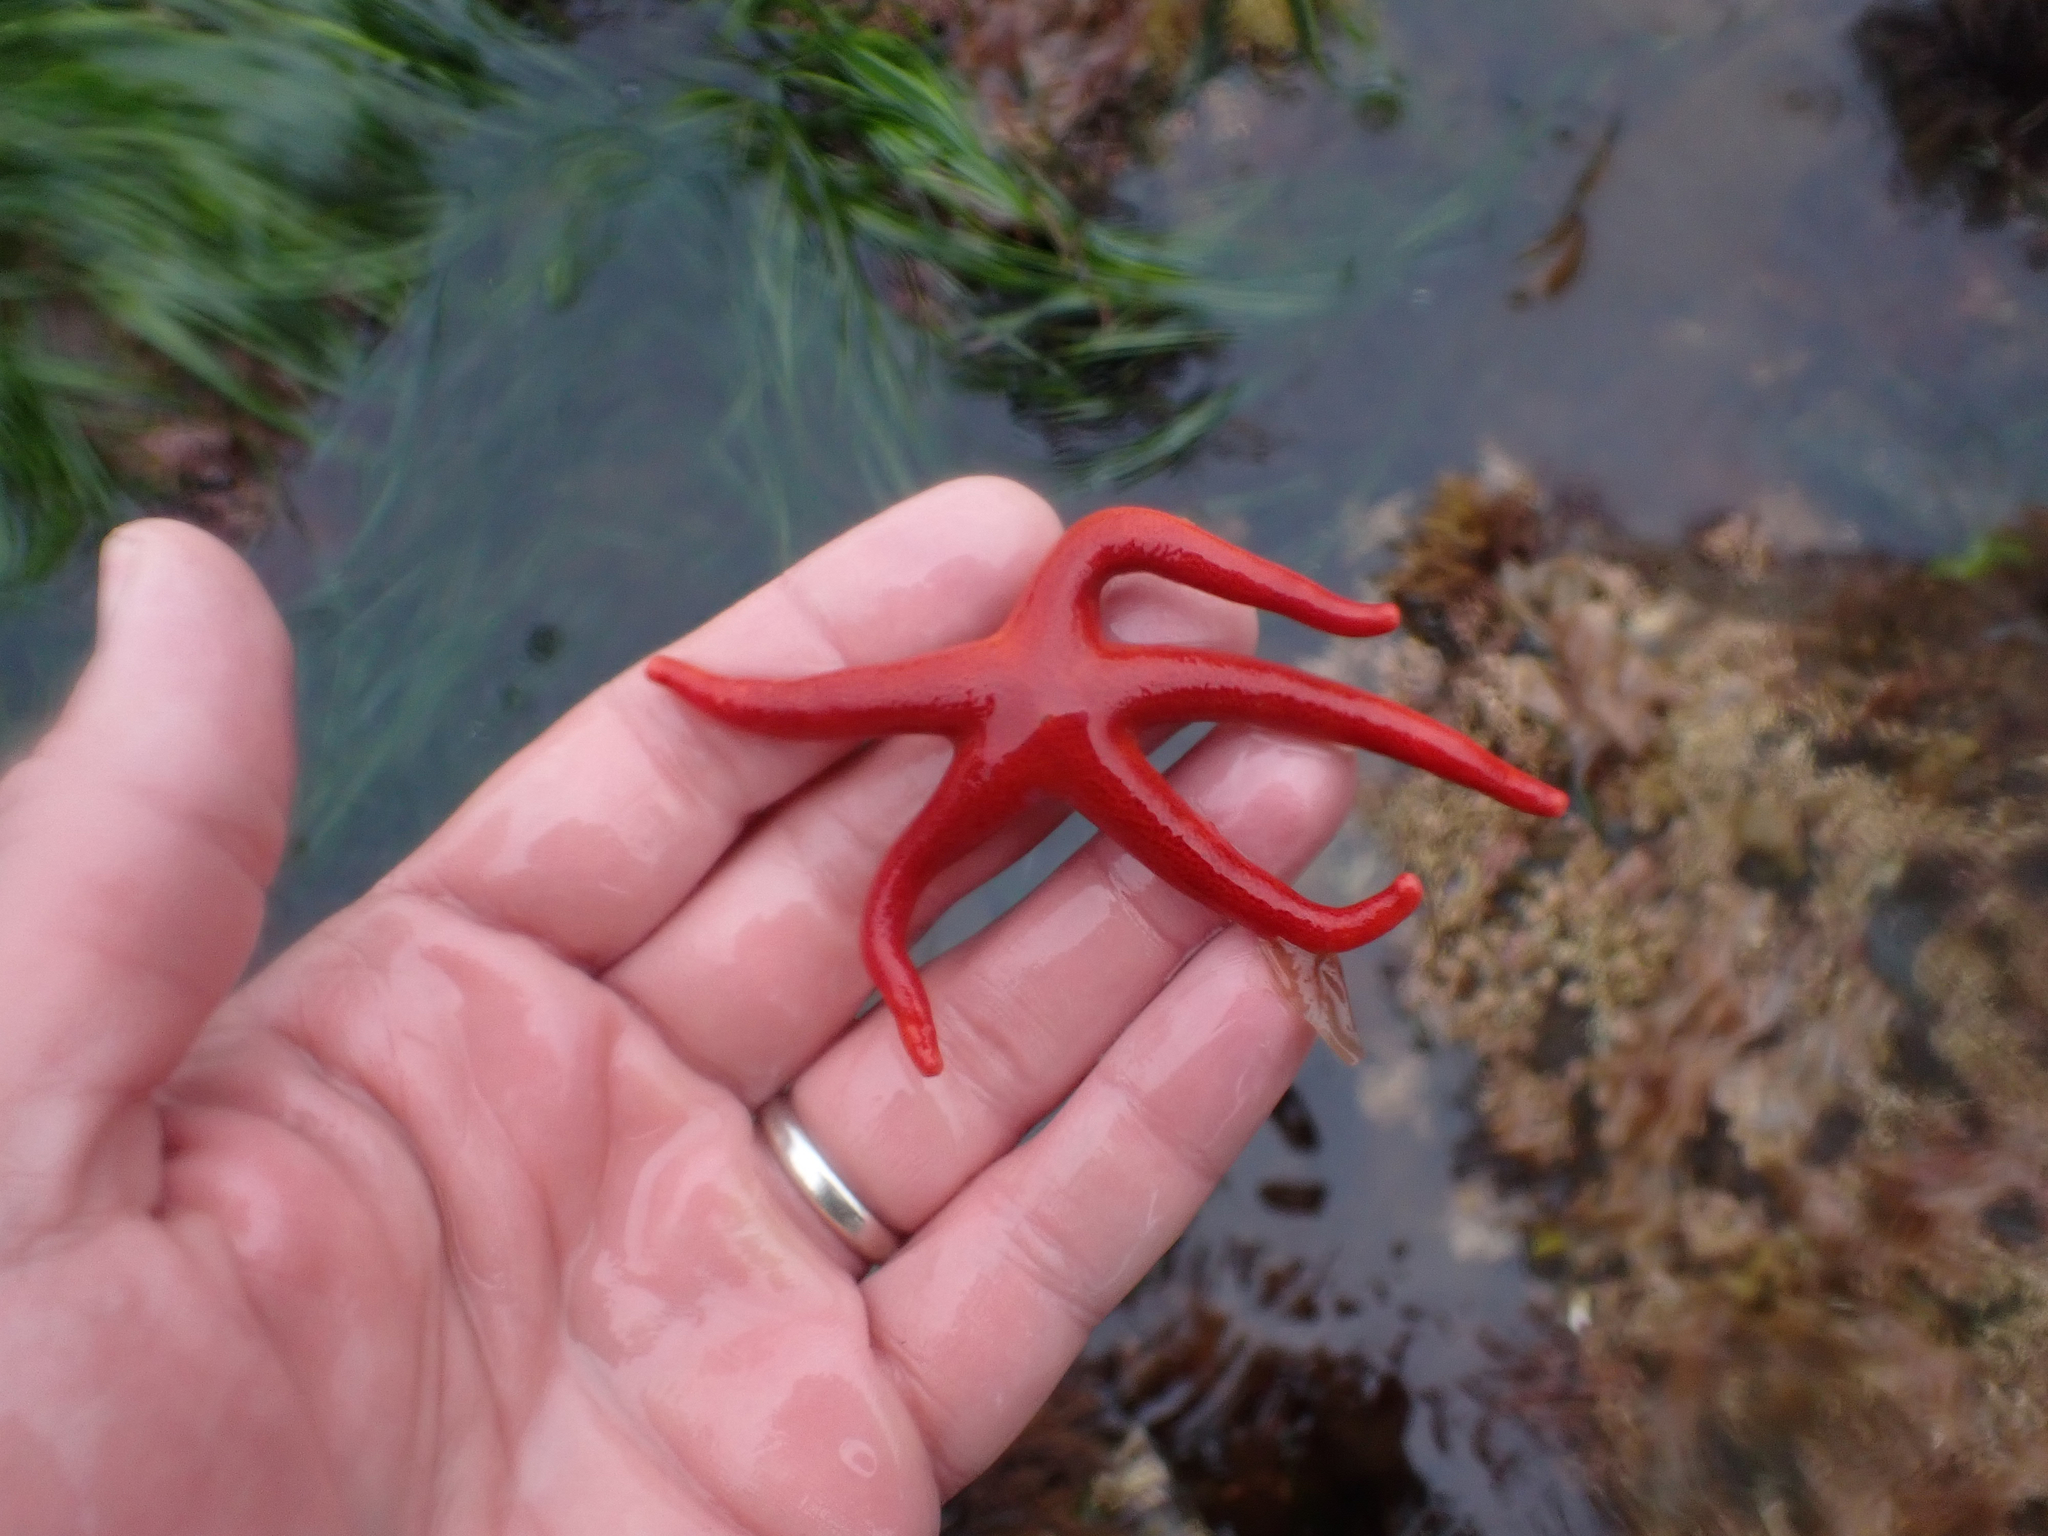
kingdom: Animalia
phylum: Echinodermata
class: Asteroidea
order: Spinulosida
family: Echinasteridae
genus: Henricia
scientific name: Henricia leviuscula
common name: Pacific blood star
